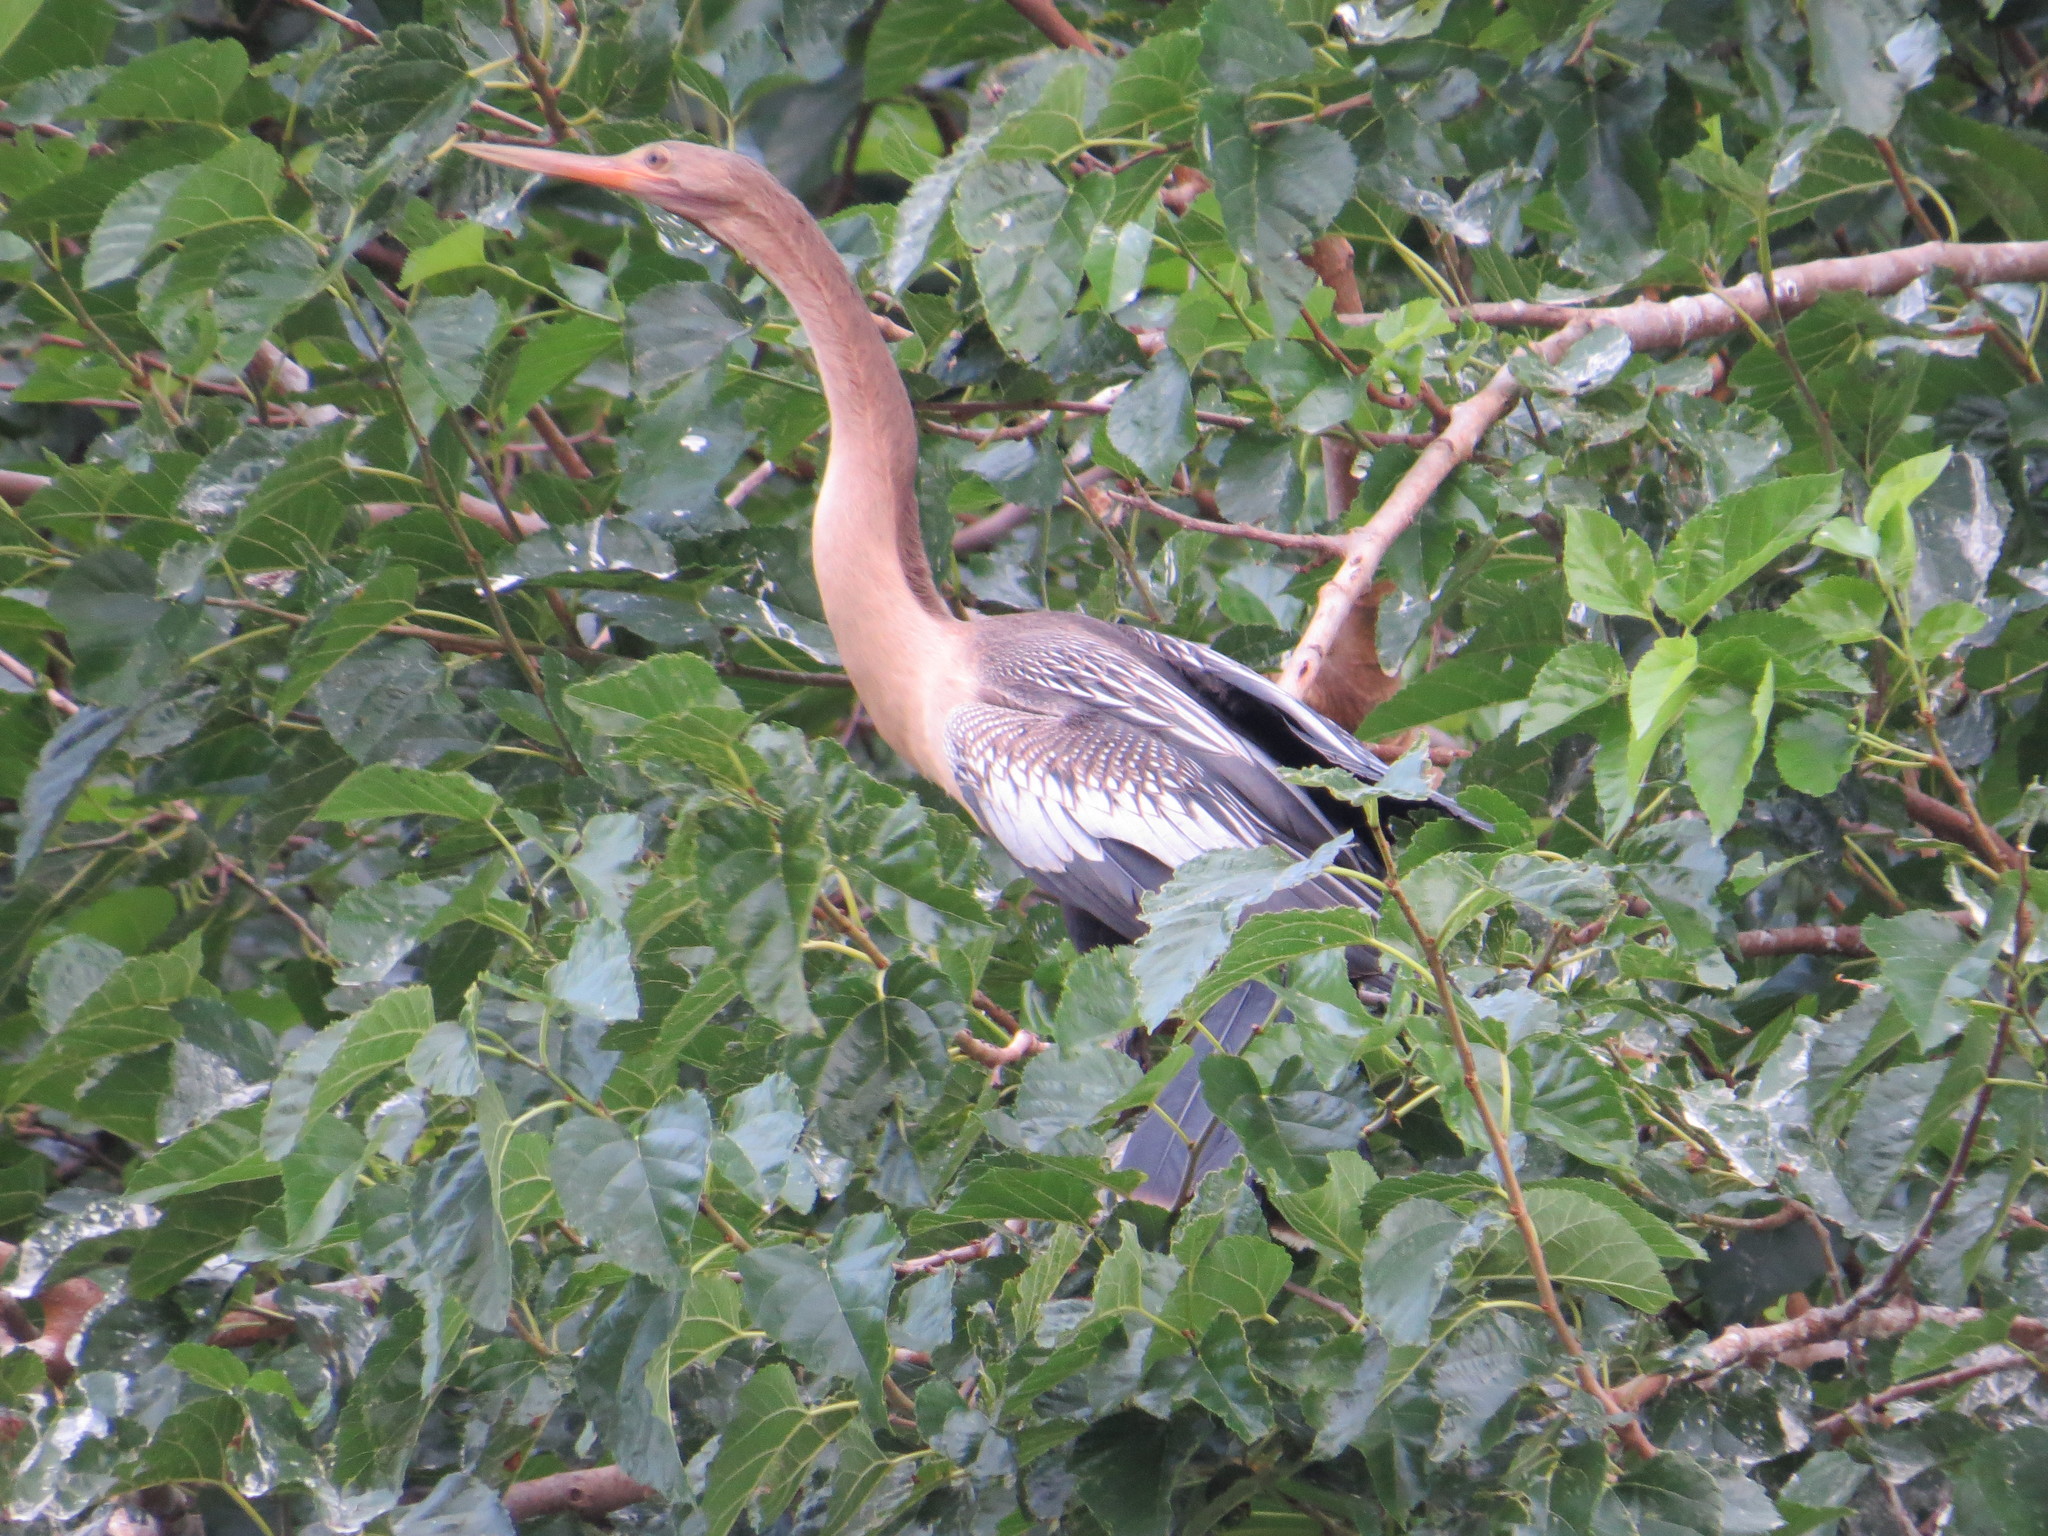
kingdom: Animalia
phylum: Chordata
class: Aves
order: Suliformes
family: Anhingidae
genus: Anhinga
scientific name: Anhinga anhinga
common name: Anhinga
